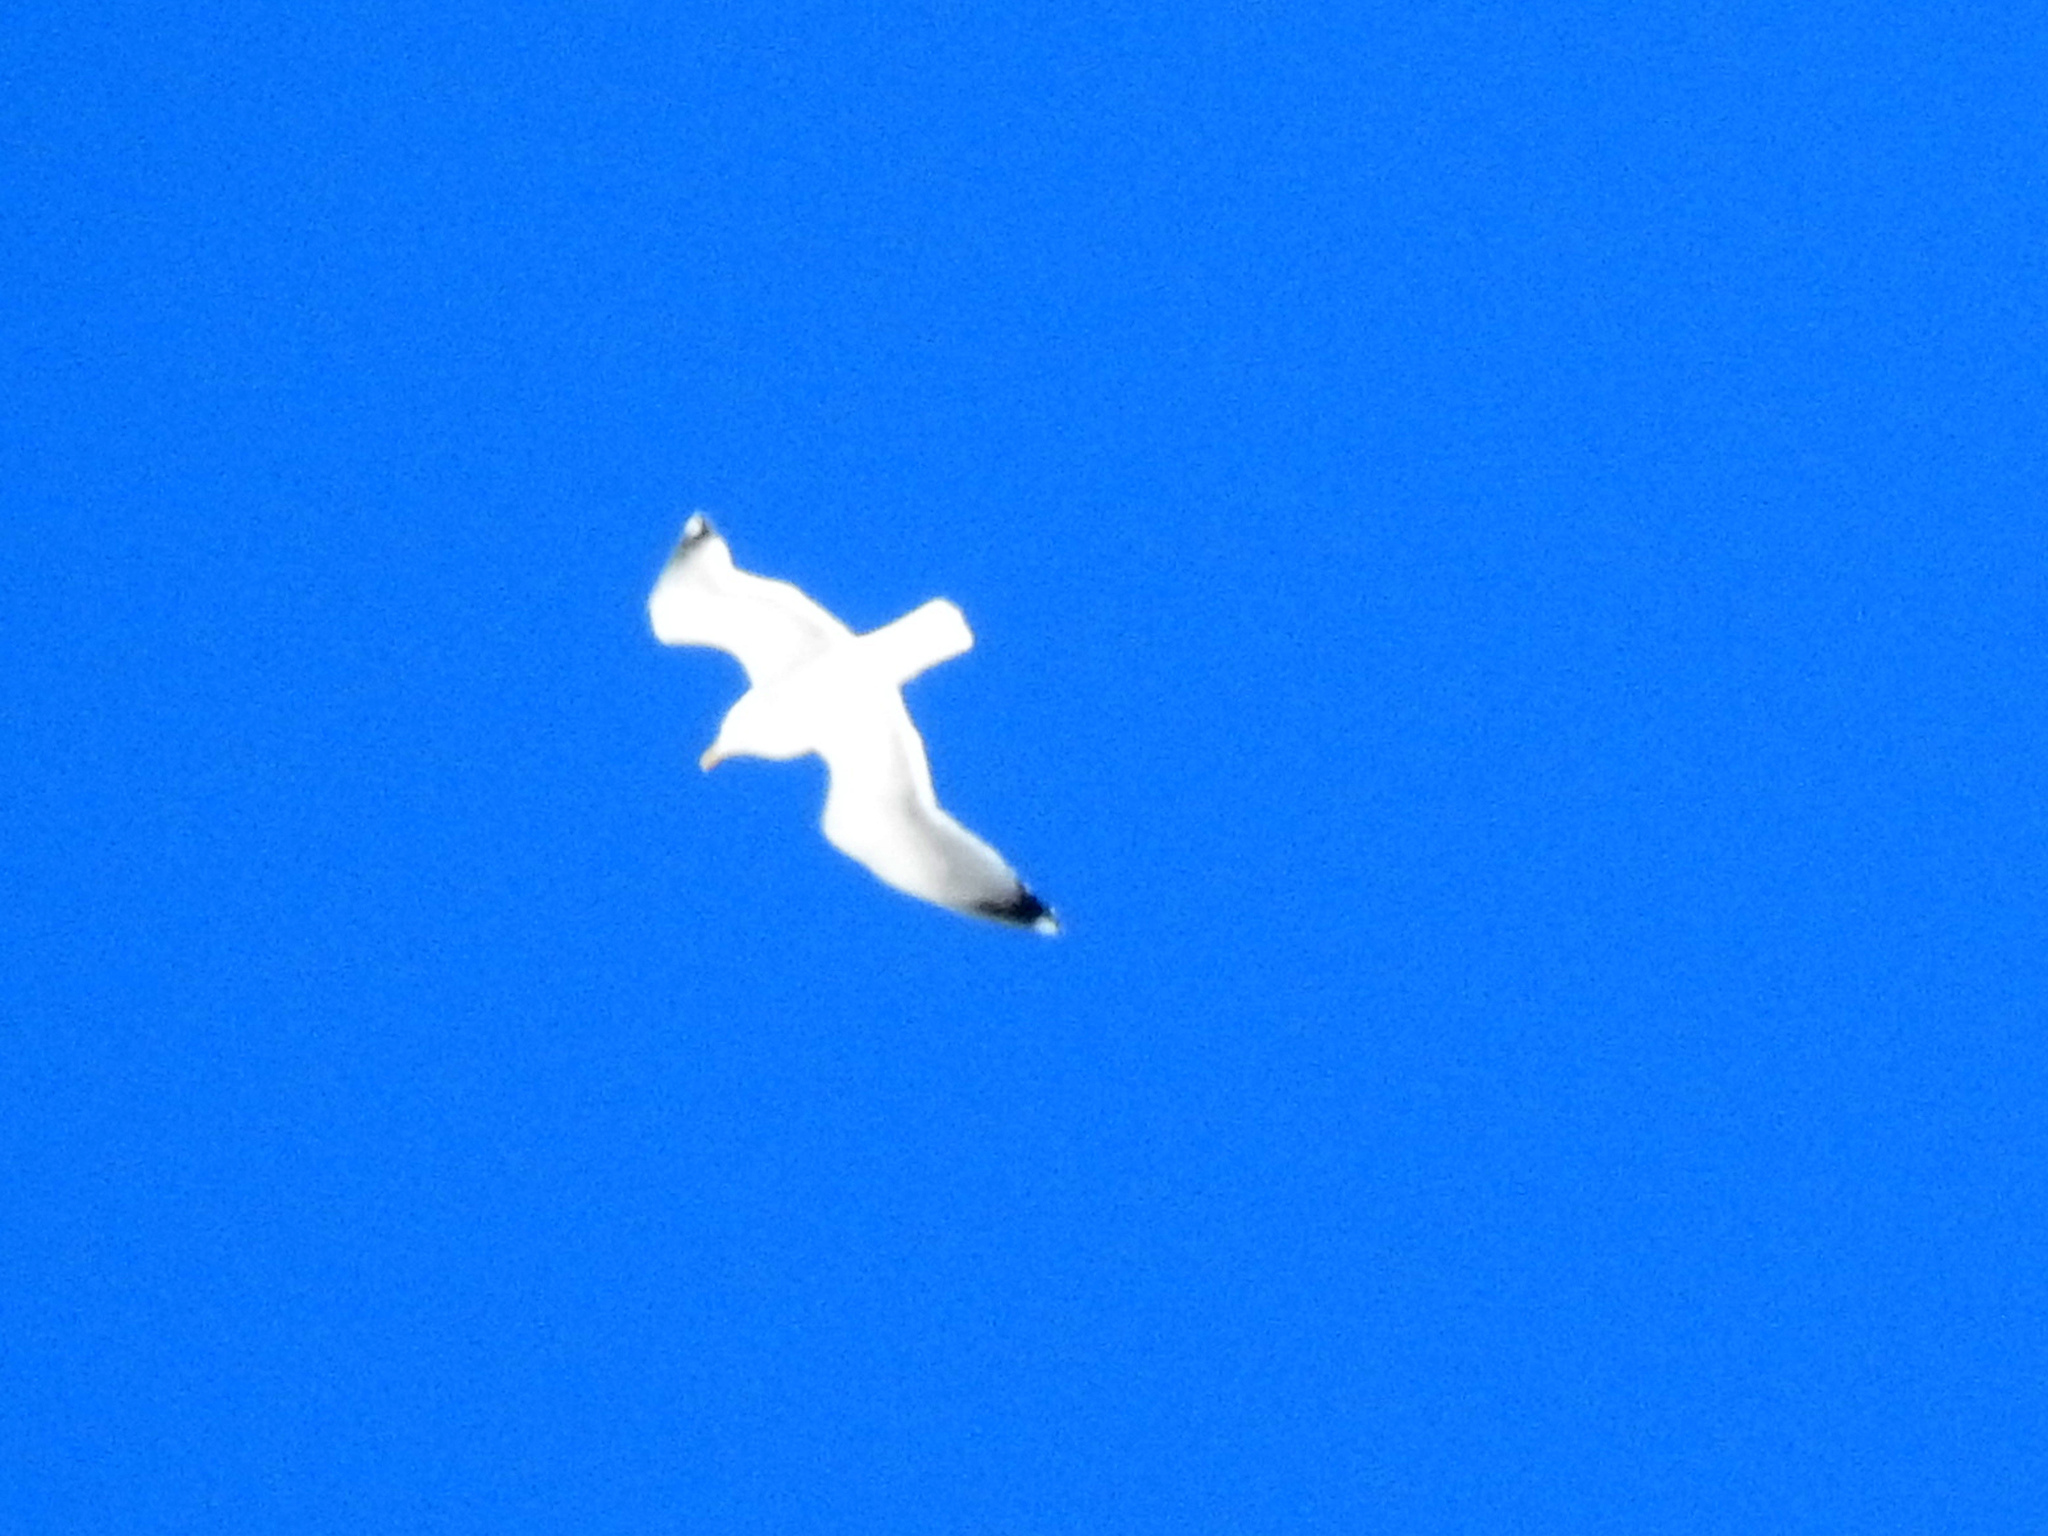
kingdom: Animalia
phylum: Chordata
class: Aves
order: Charadriiformes
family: Laridae
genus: Larus
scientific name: Larus argentatus
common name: Herring gull
